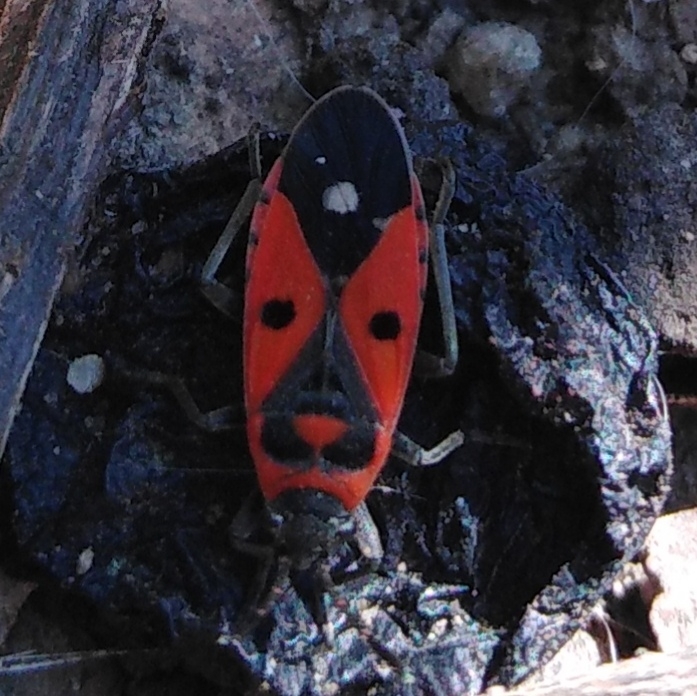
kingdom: Animalia
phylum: Arthropoda
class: Insecta
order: Hemiptera
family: Lygaeidae
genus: Melanocoryphus
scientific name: Melanocoryphus albomaculatus
